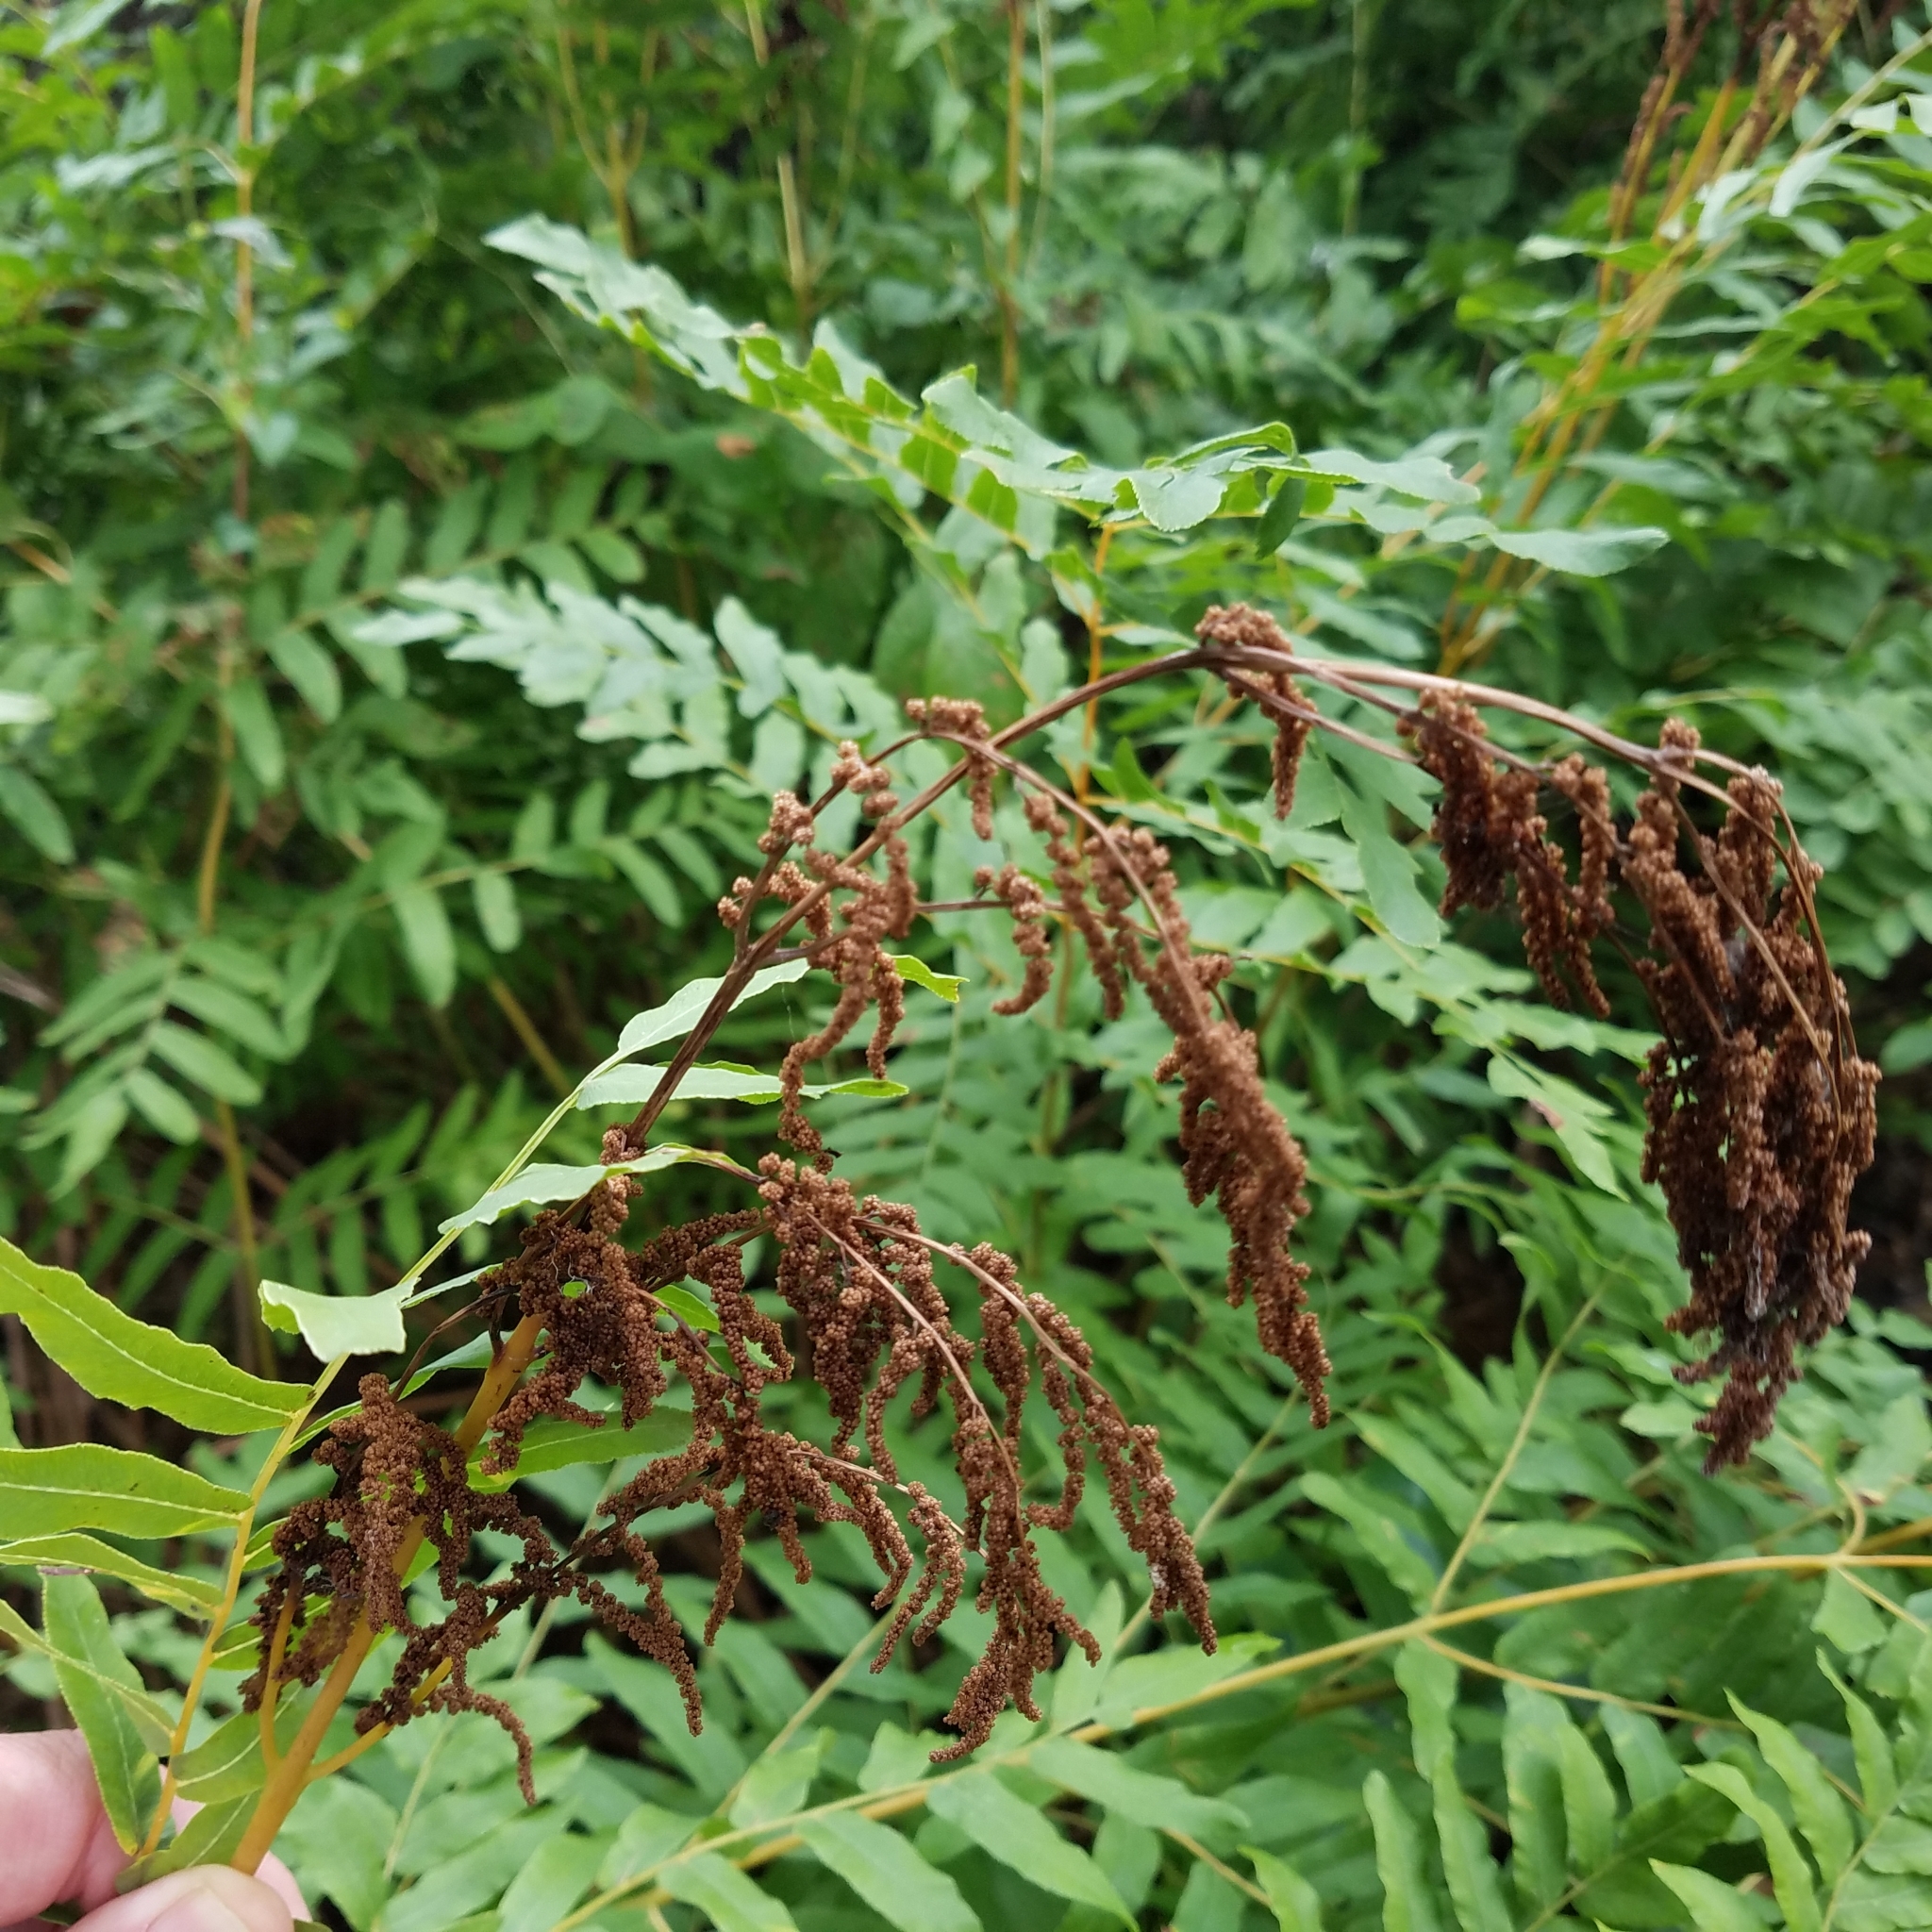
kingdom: Plantae
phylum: Tracheophyta
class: Polypodiopsida
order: Osmundales
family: Osmundaceae
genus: Osmunda
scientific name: Osmunda spectabilis
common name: American royal fern
